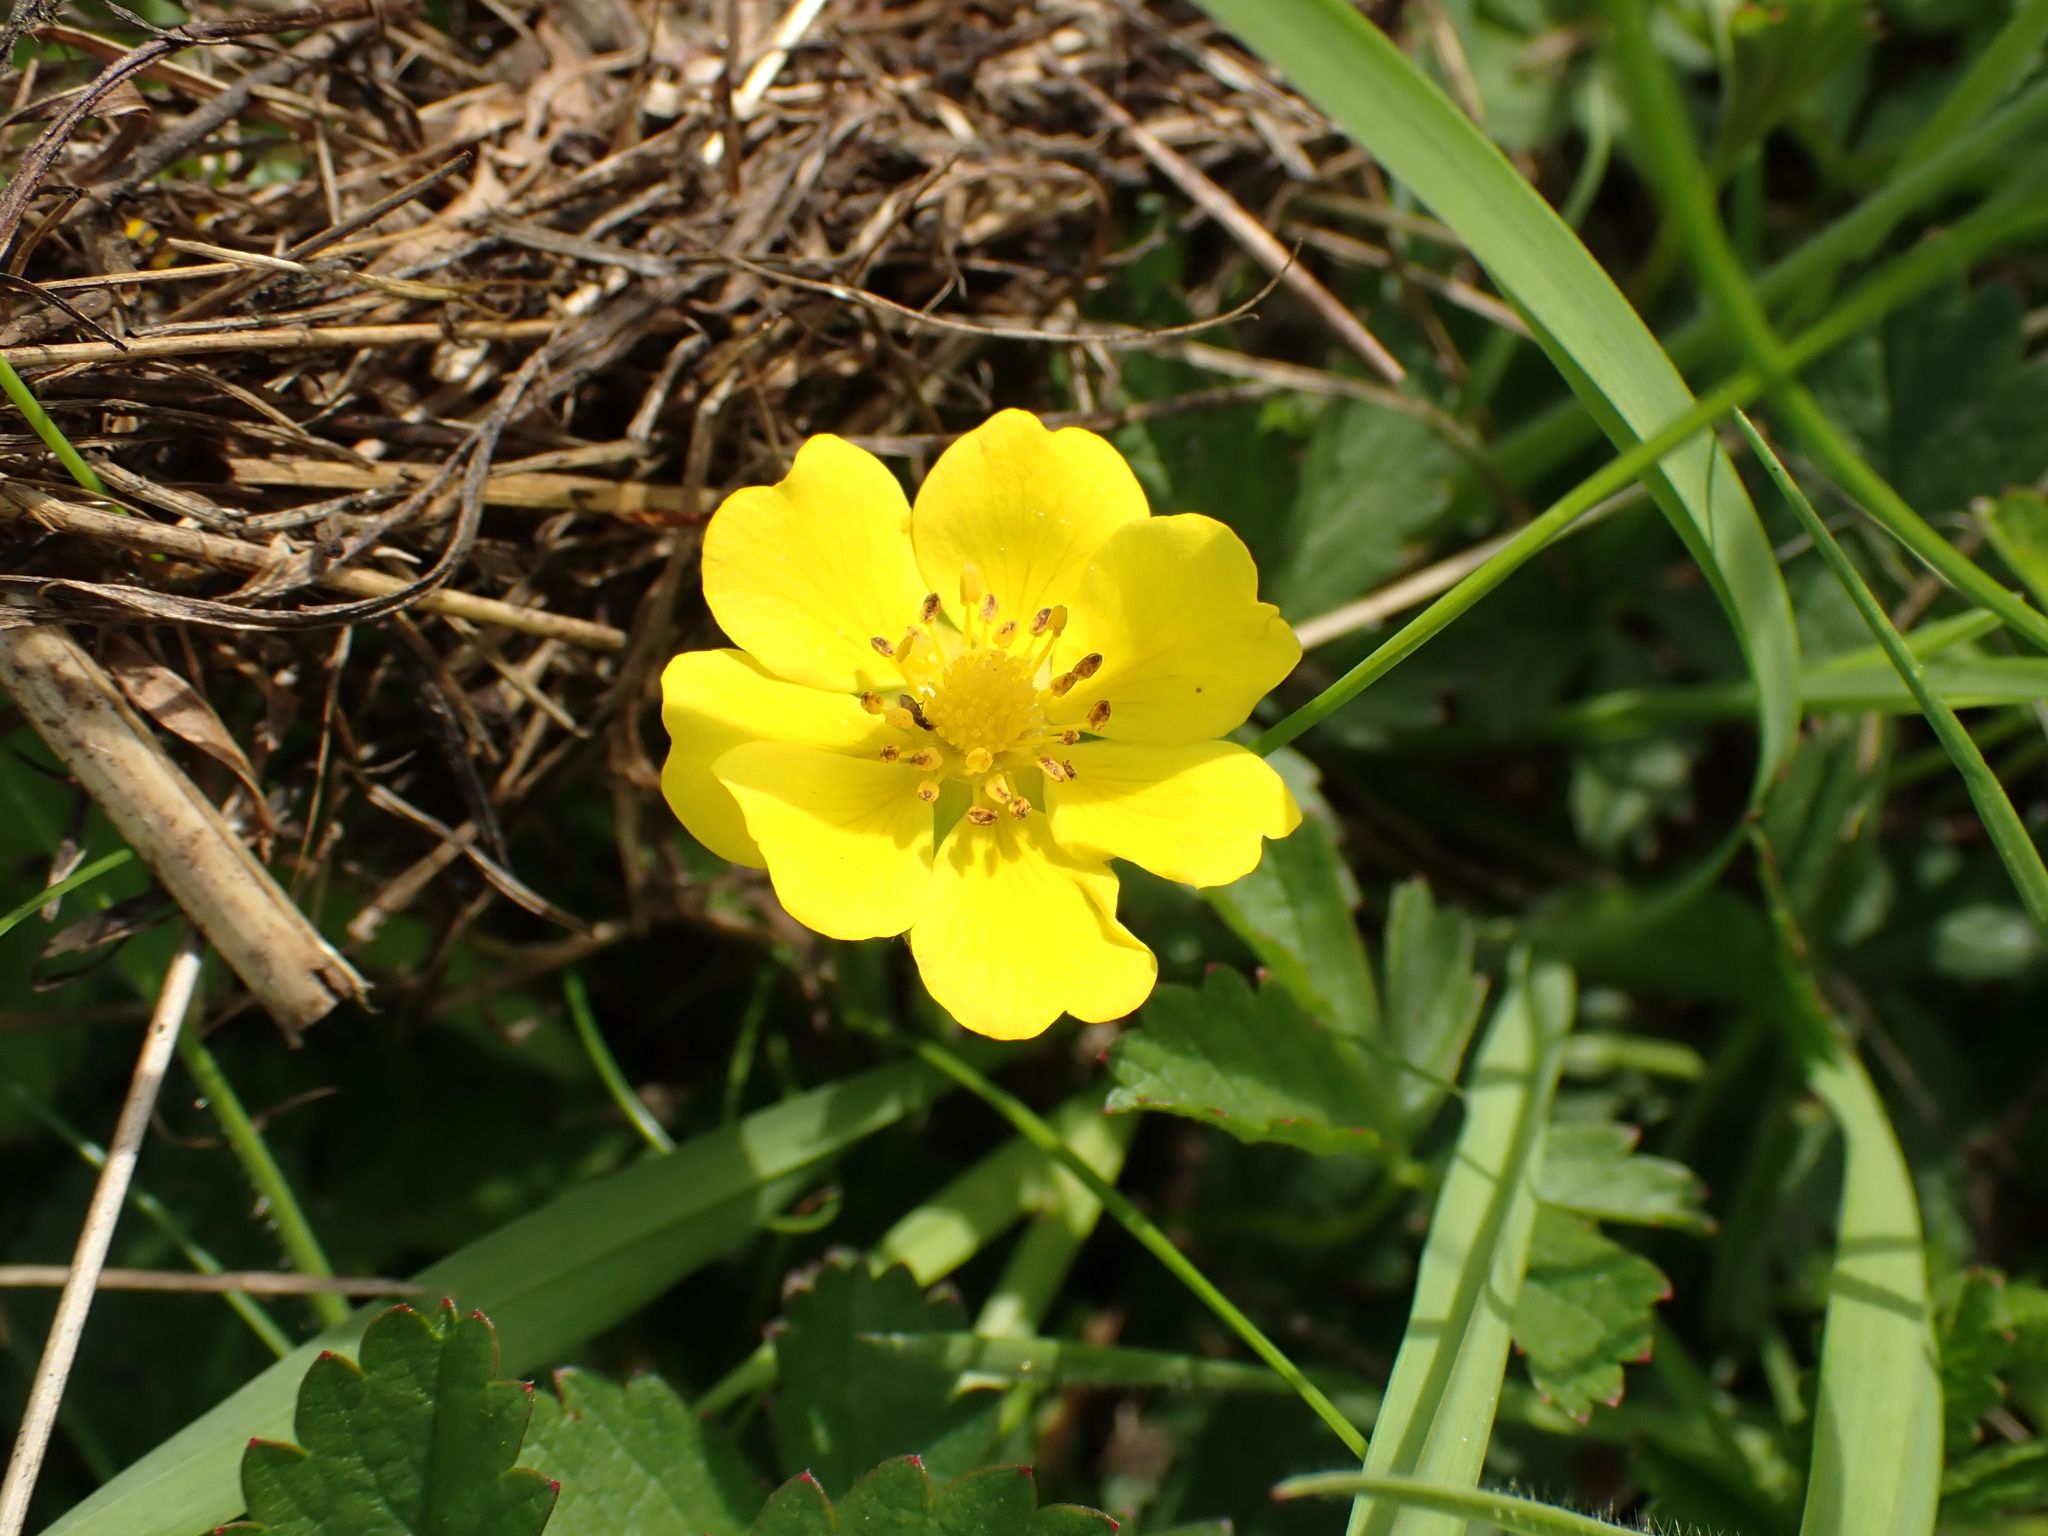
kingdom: Plantae
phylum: Tracheophyta
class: Magnoliopsida
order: Rosales
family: Rosaceae
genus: Potentilla
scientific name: Potentilla reptans
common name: Creeping cinquefoil
